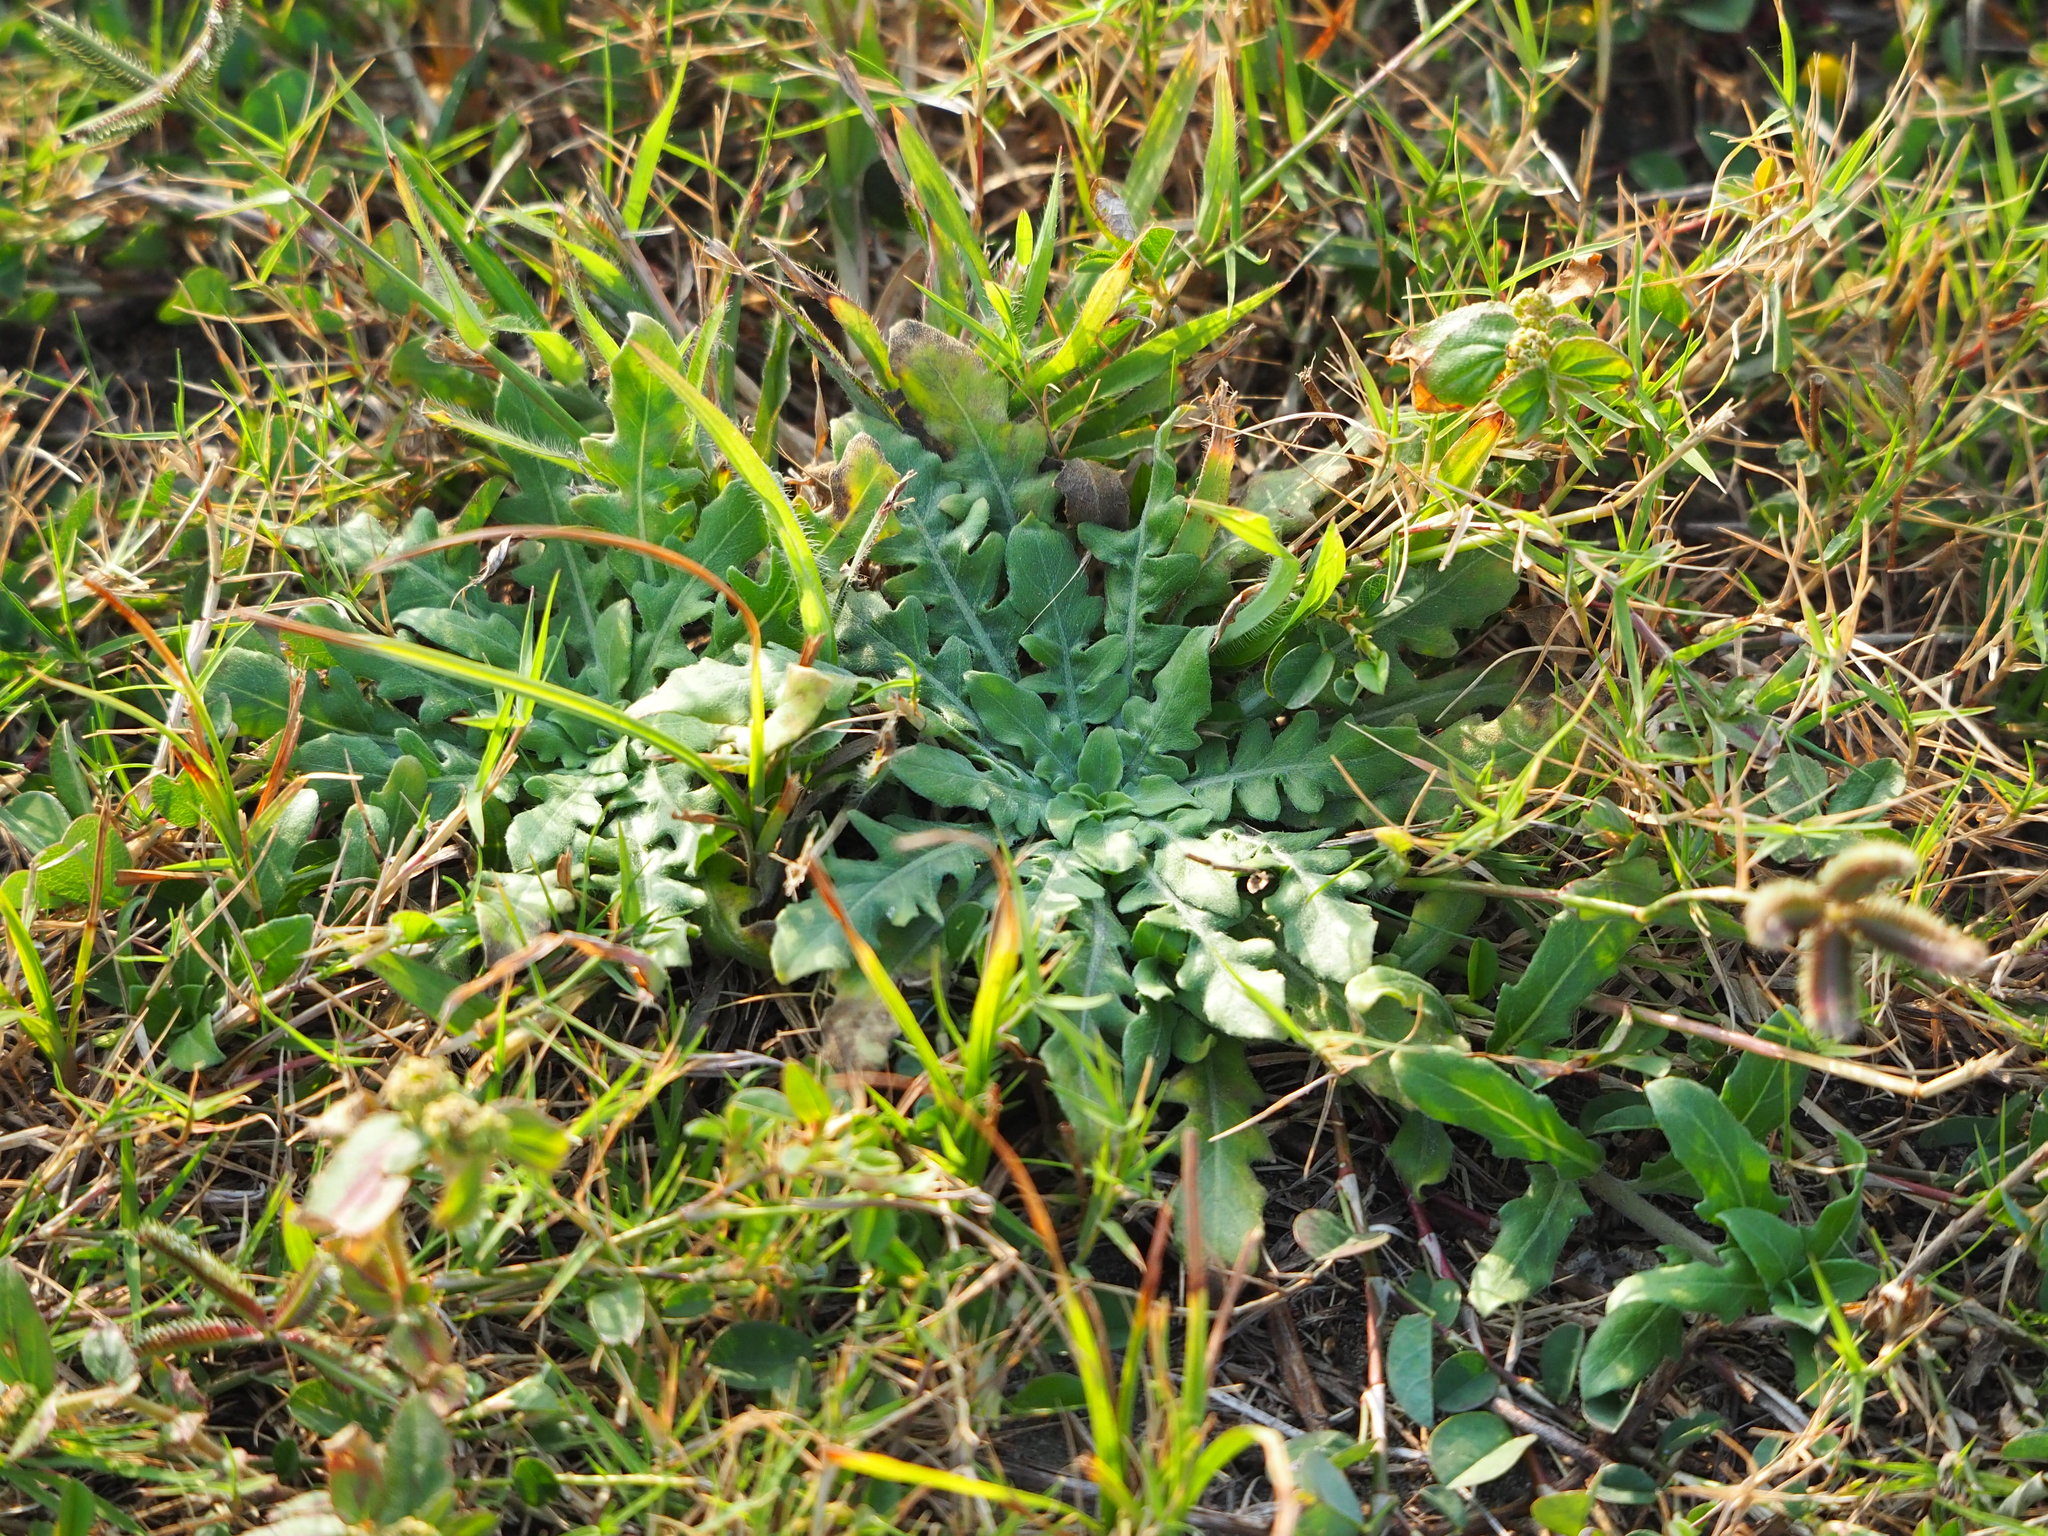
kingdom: Plantae
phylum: Tracheophyta
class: Magnoliopsida
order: Myrtales
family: Onagraceae
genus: Oenothera
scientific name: Oenothera laciniata
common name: Cut-leaved evening-primrose
